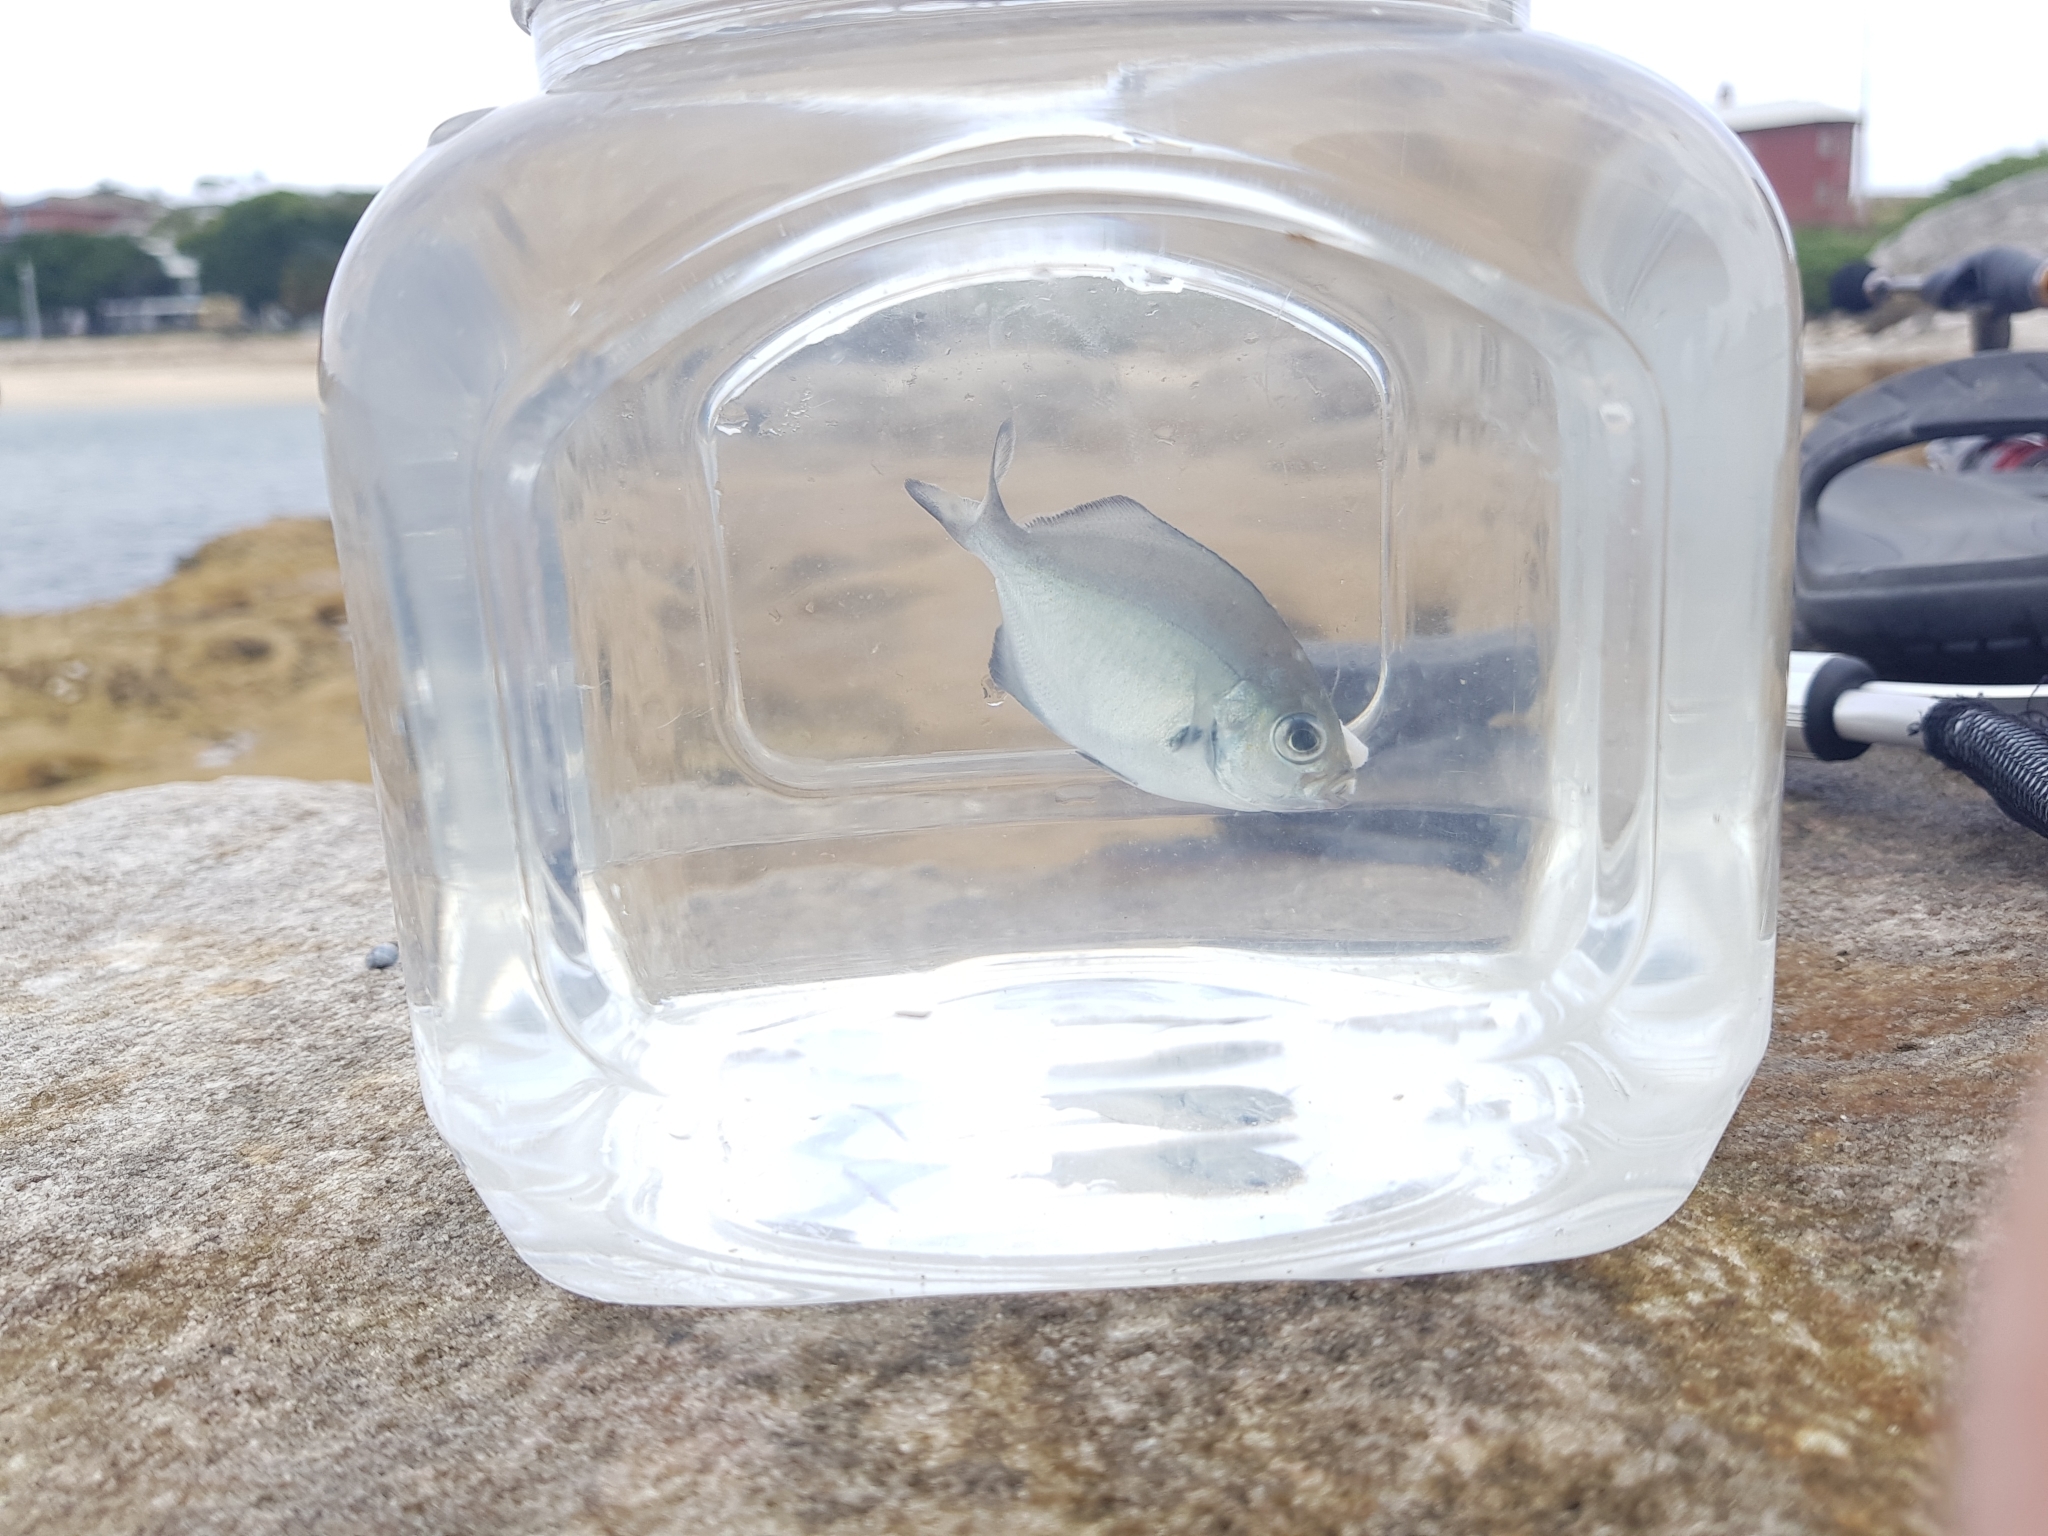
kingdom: Animalia
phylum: Chordata
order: Perciformes
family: Kyphosidae
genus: Scorpis
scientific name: Scorpis lineolata
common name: Sweep
